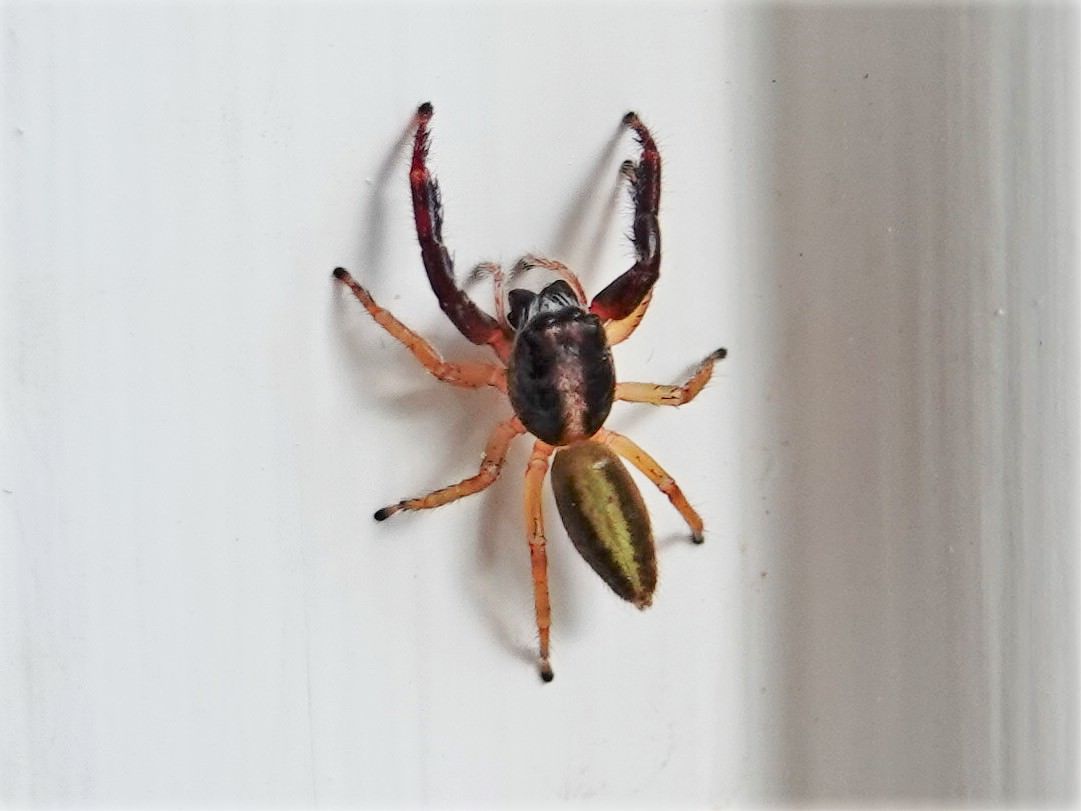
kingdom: Animalia
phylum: Arthropoda
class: Arachnida
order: Araneae
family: Salticidae
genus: Trite
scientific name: Trite planiceps
